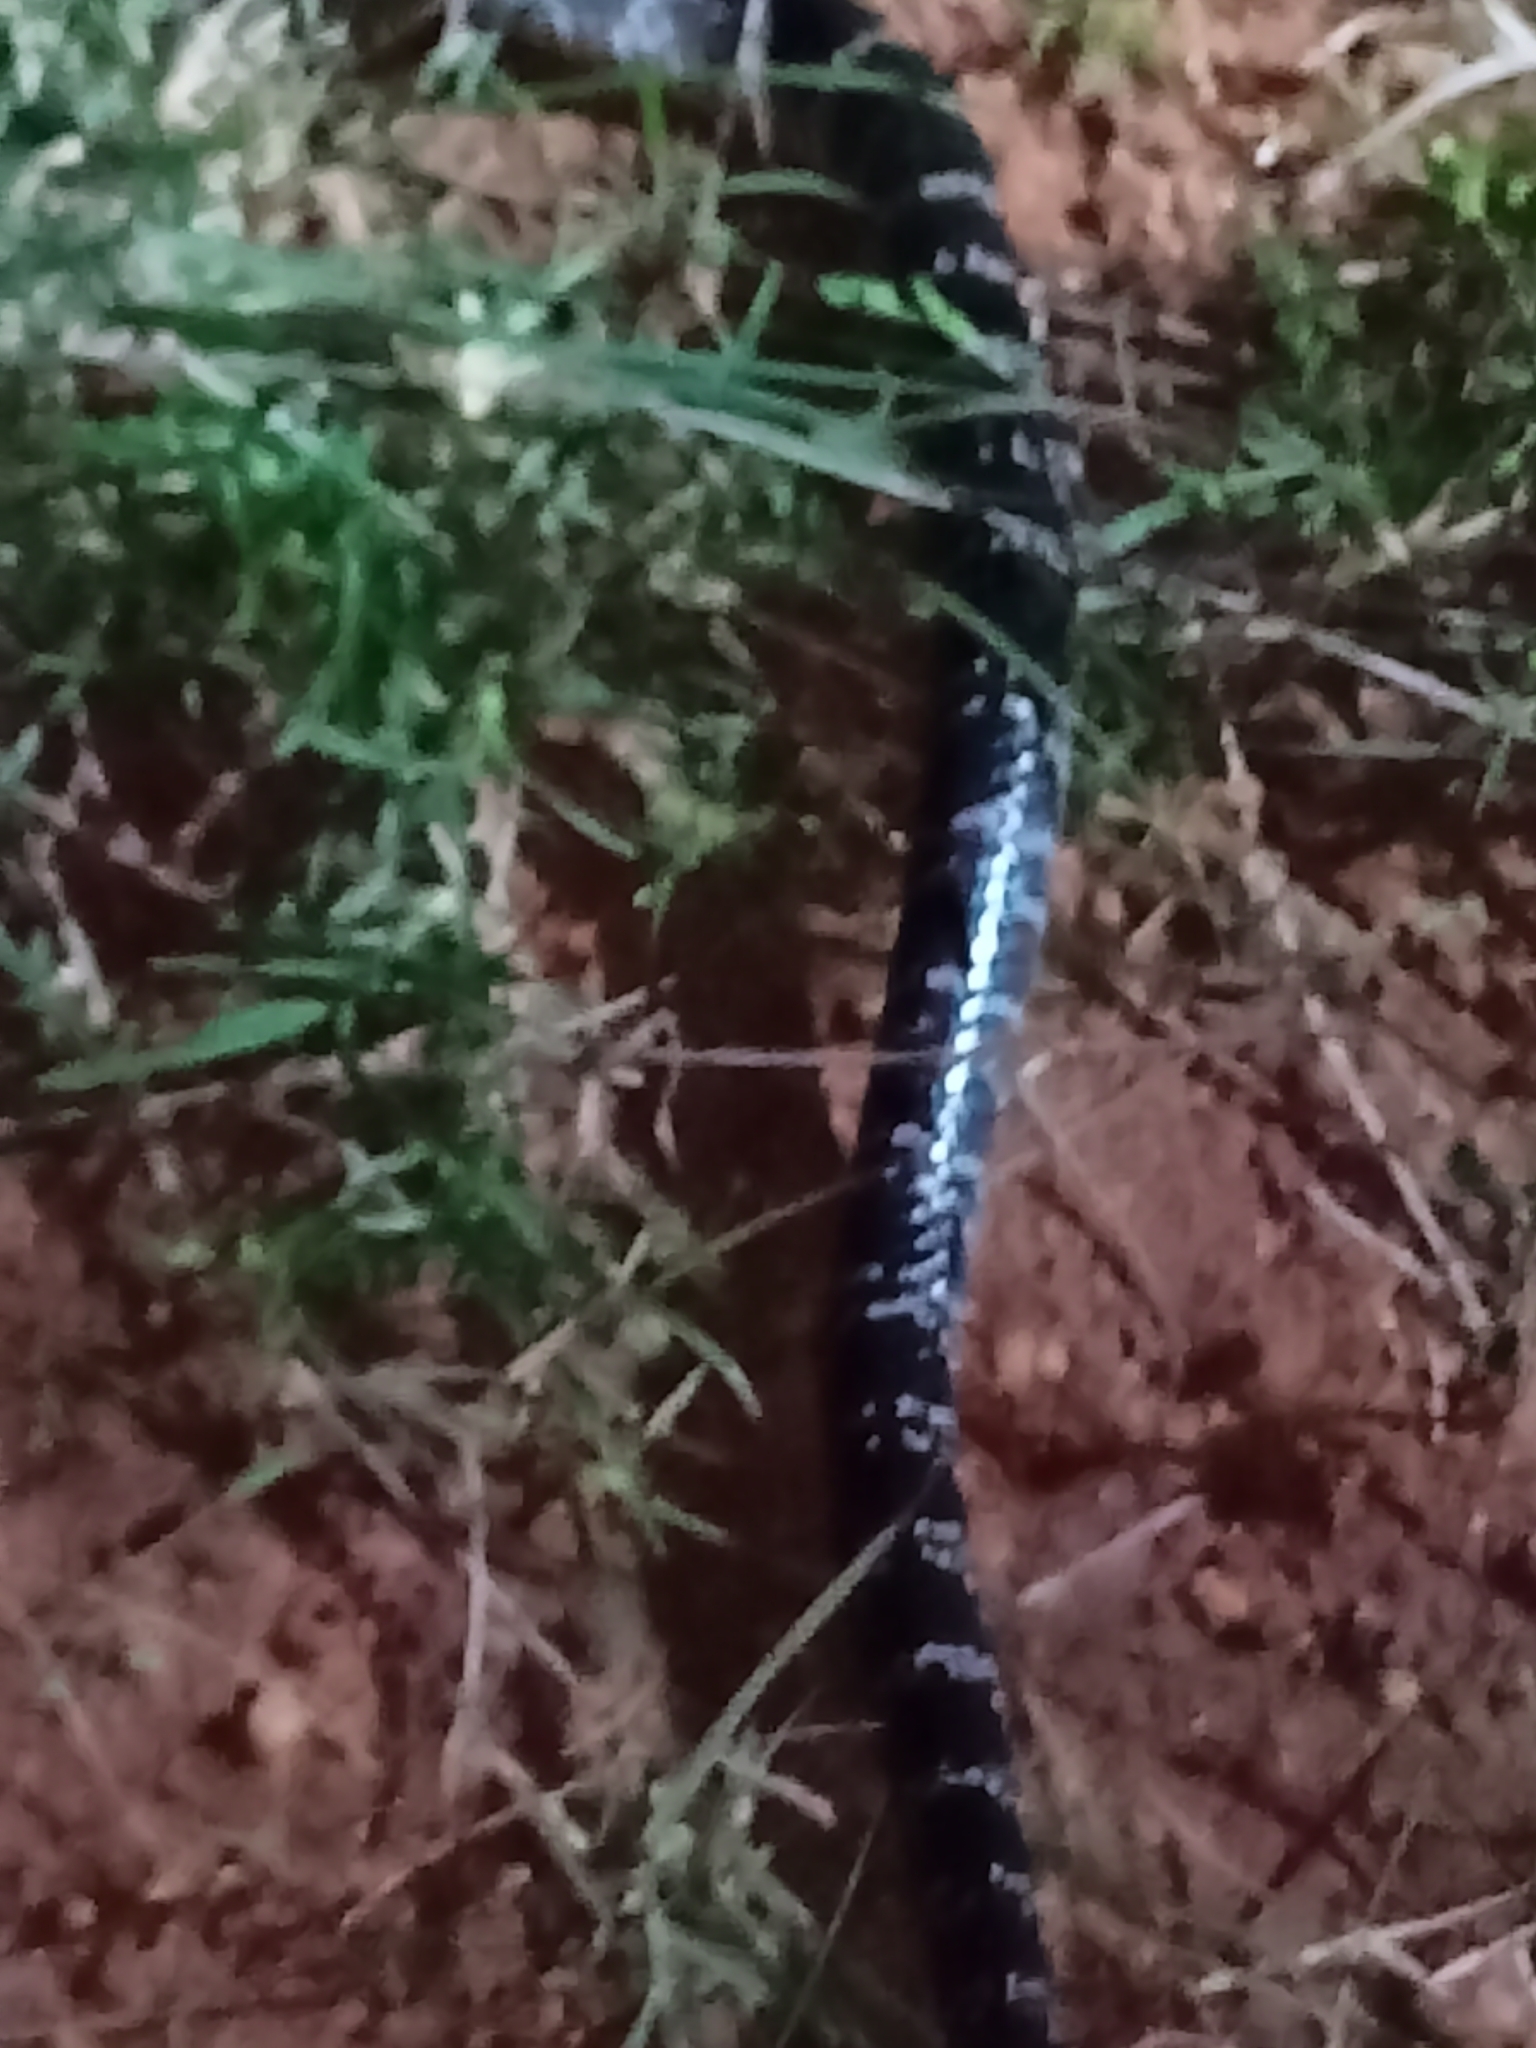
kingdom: Animalia
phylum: Chordata
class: Squamata
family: Elapidae
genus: Bungarus
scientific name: Bungarus caeruleus
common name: Common krait
